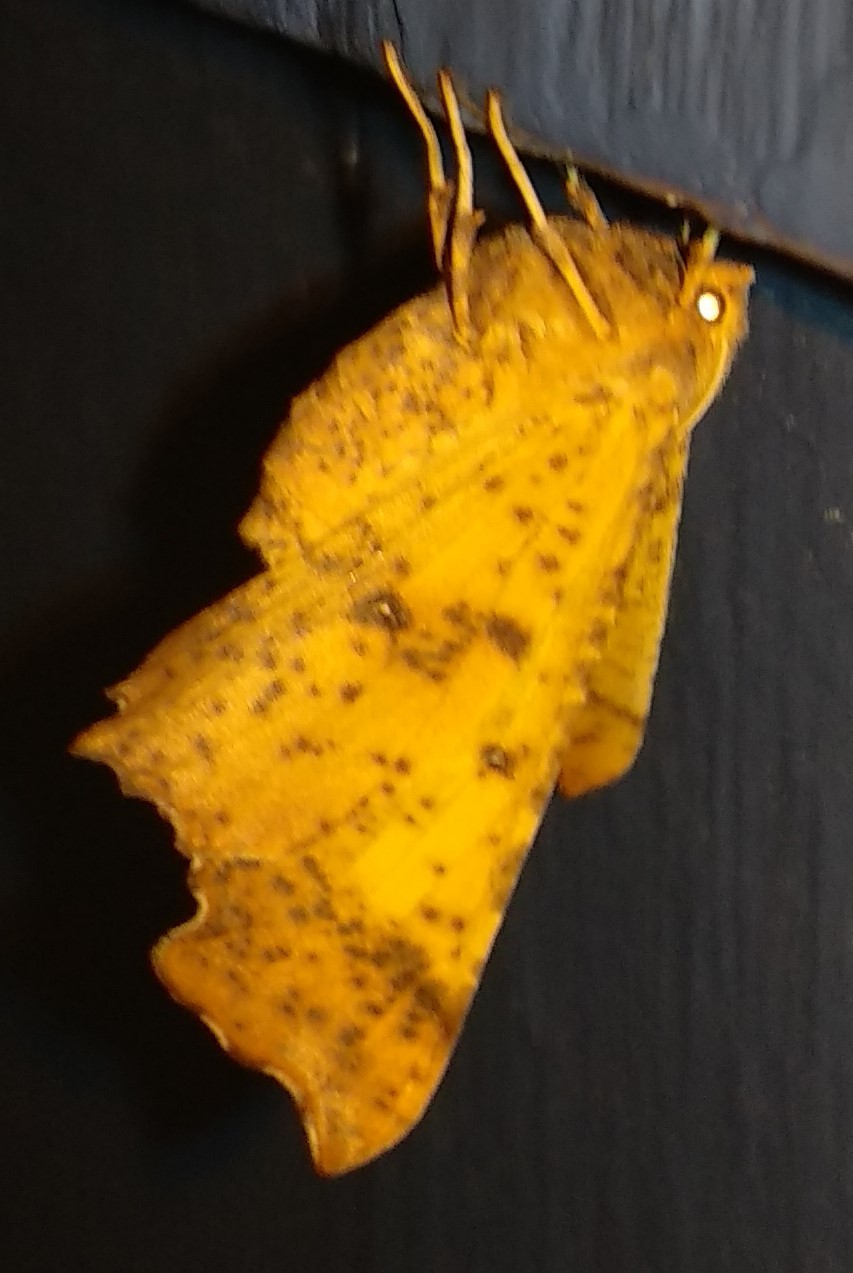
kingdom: Animalia
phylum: Arthropoda
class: Insecta
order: Lepidoptera
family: Geometridae
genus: Ennomos
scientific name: Ennomos magnaria
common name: Maple spanworm
